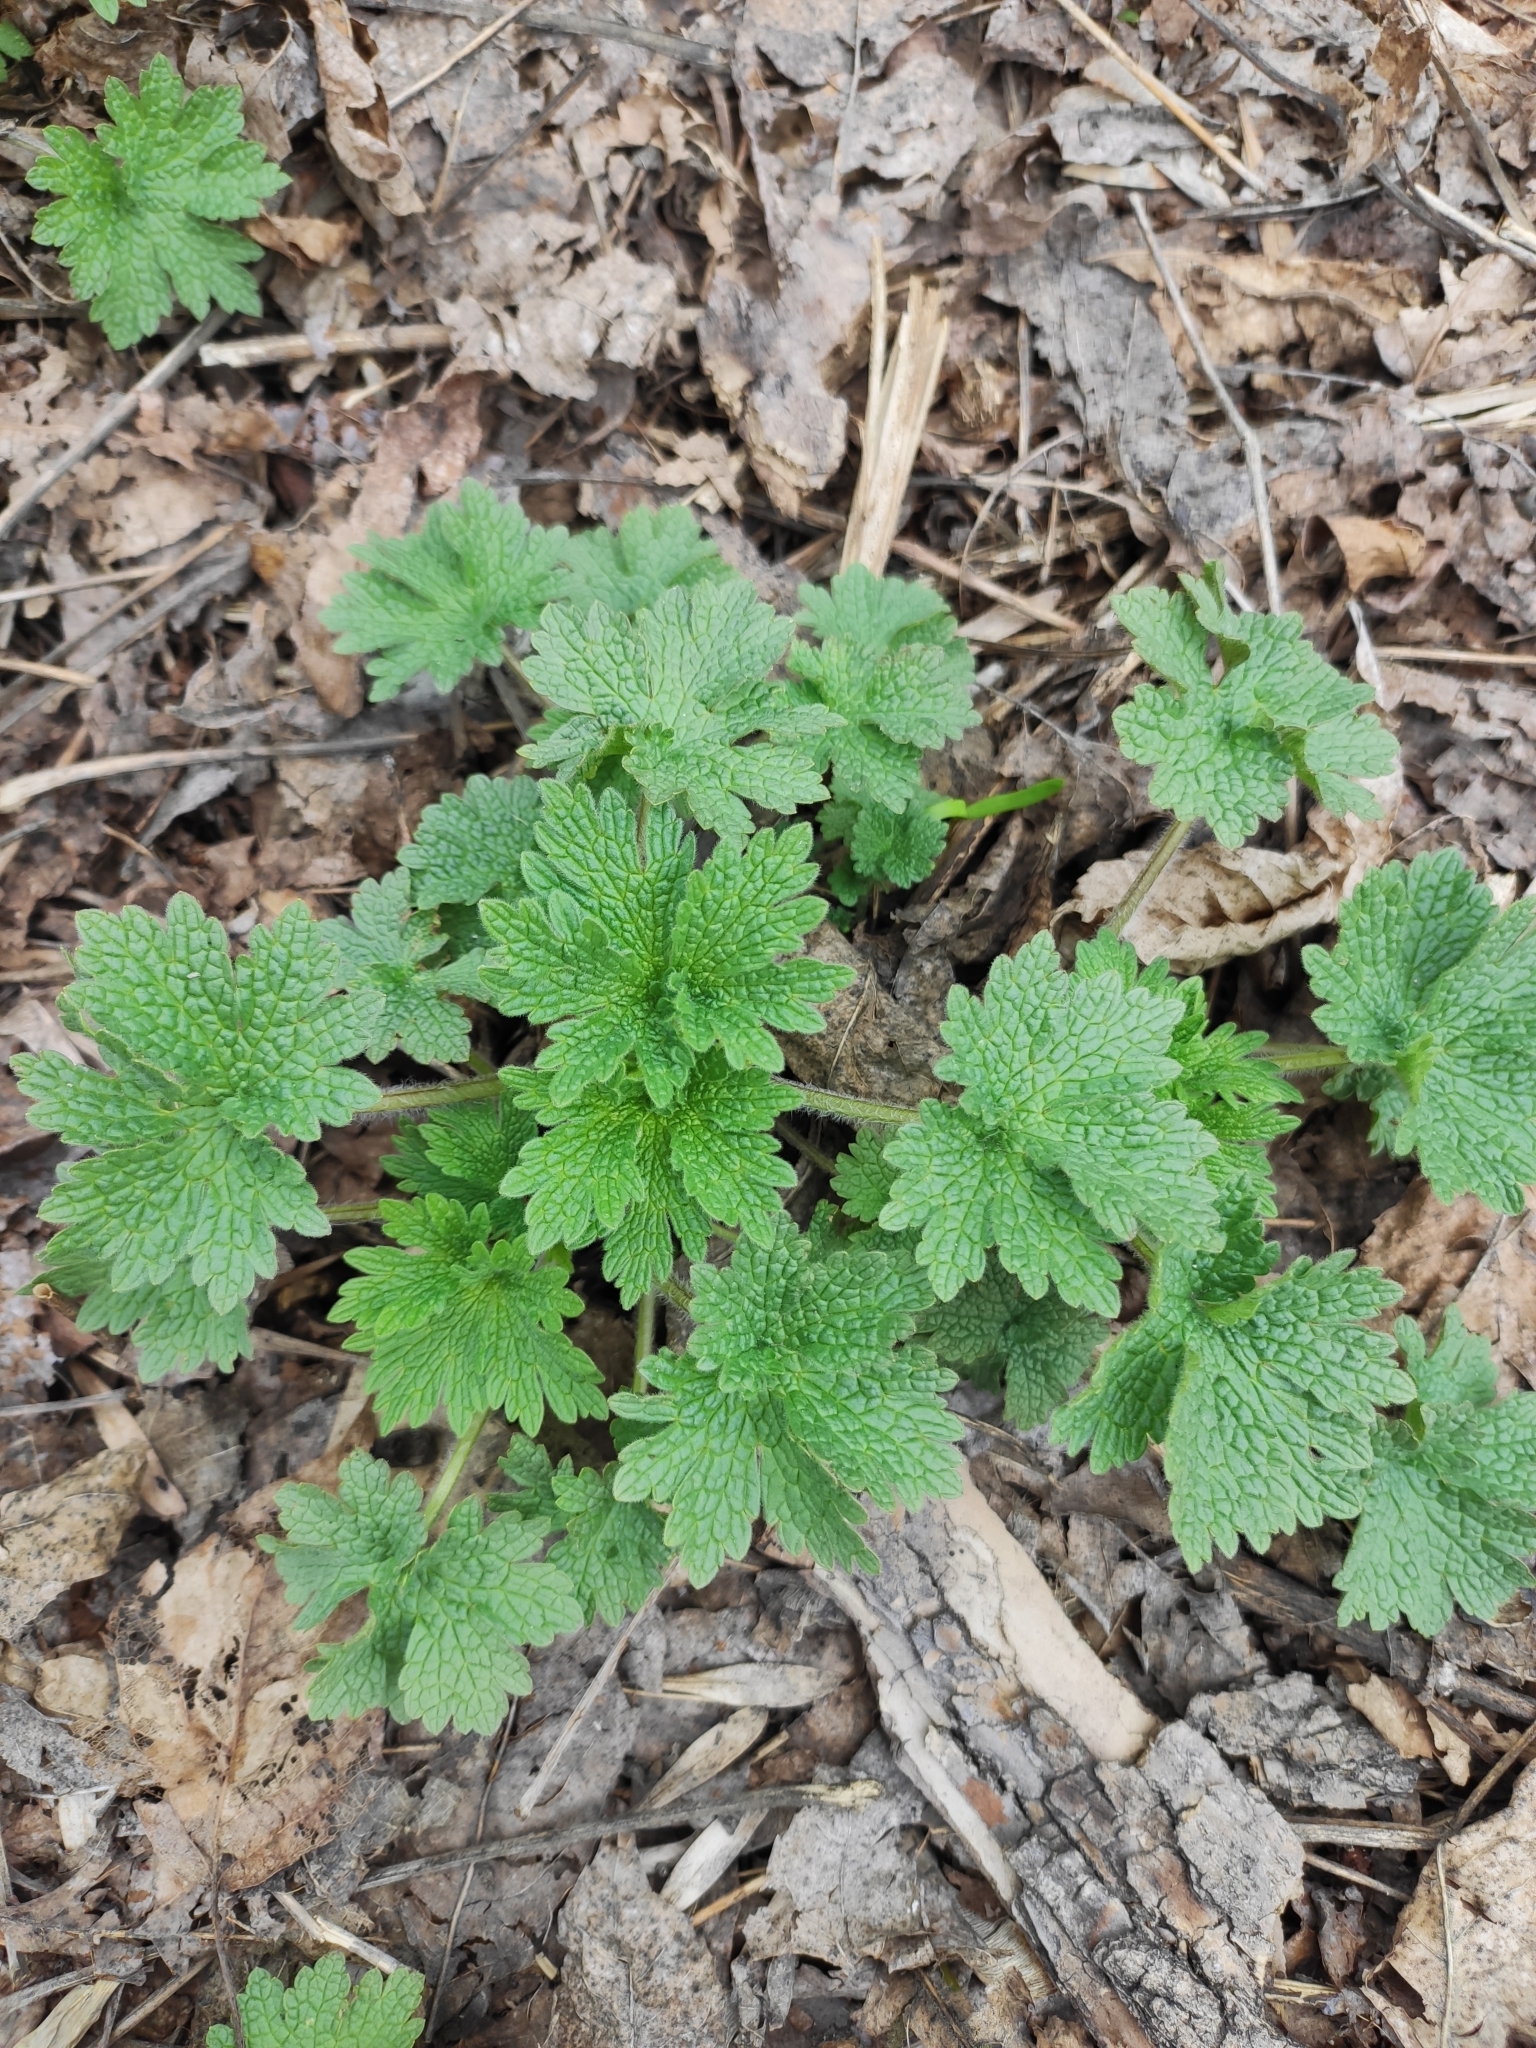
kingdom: Plantae
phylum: Tracheophyta
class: Magnoliopsida
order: Lamiales
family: Lamiaceae
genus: Leonurus
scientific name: Leonurus quinquelobatus
